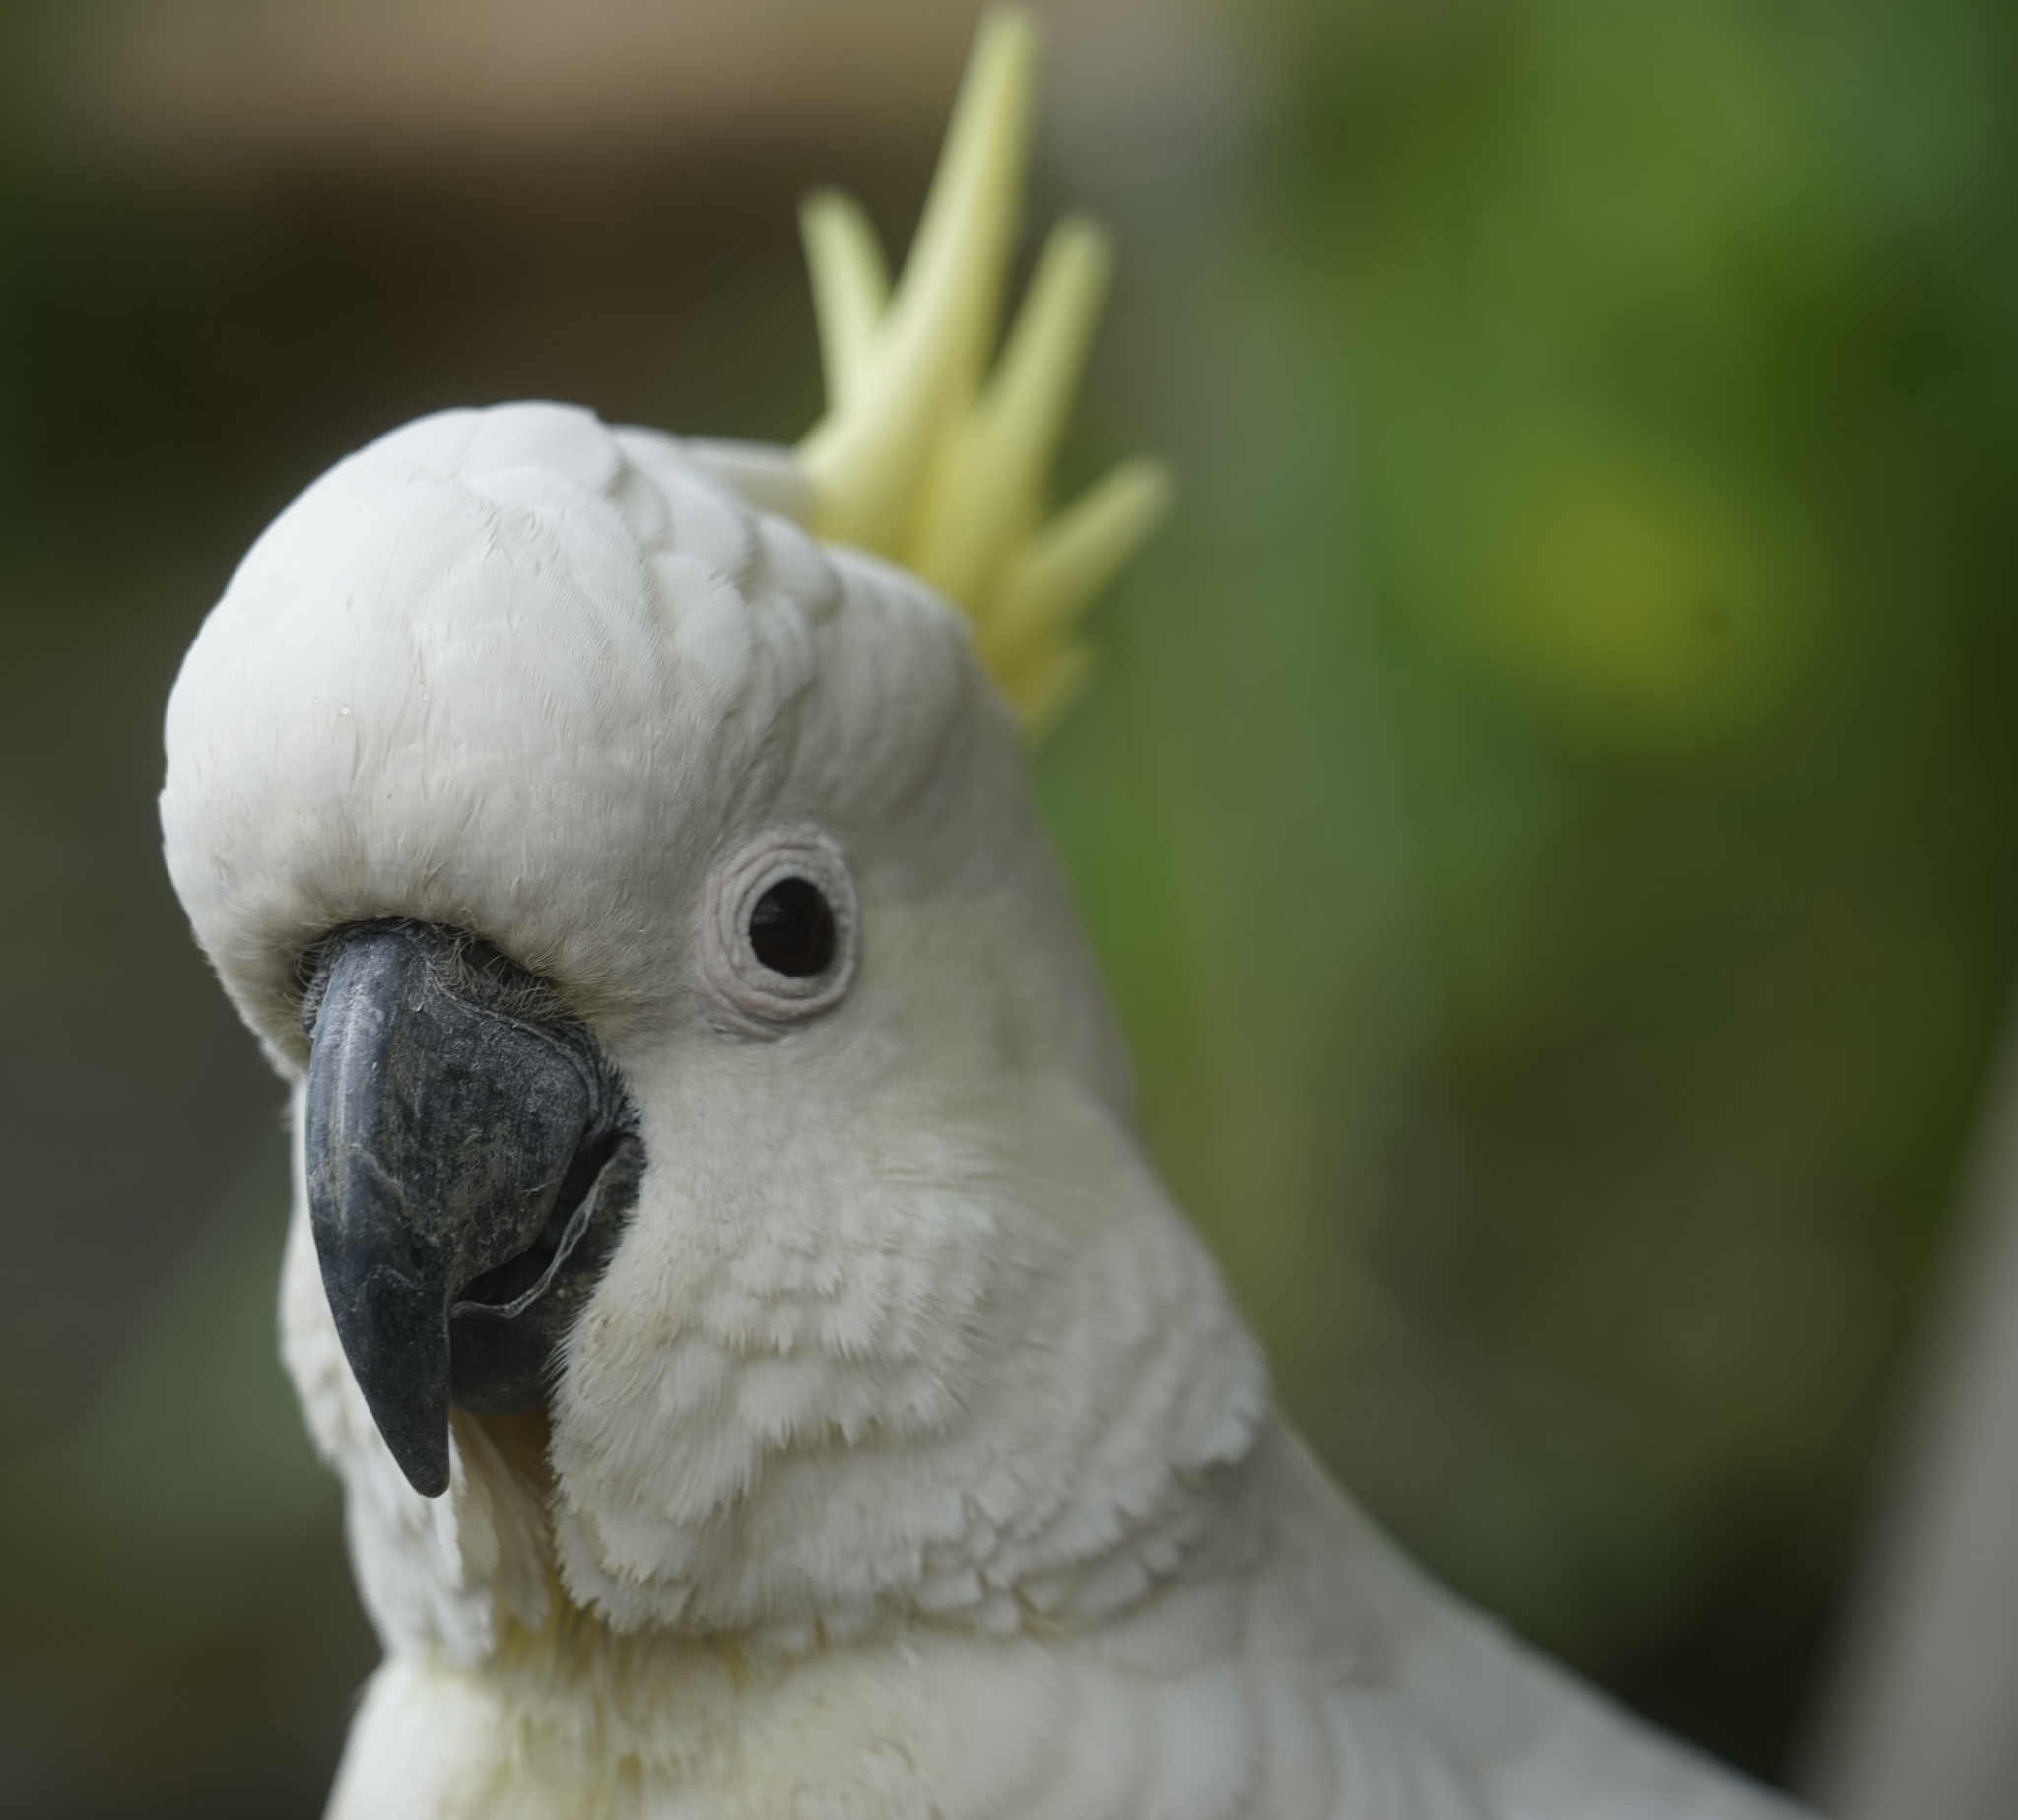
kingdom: Animalia
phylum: Chordata
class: Aves
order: Psittaciformes
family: Psittacidae
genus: Cacatua
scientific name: Cacatua galerita
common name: Sulphur-crested cockatoo
